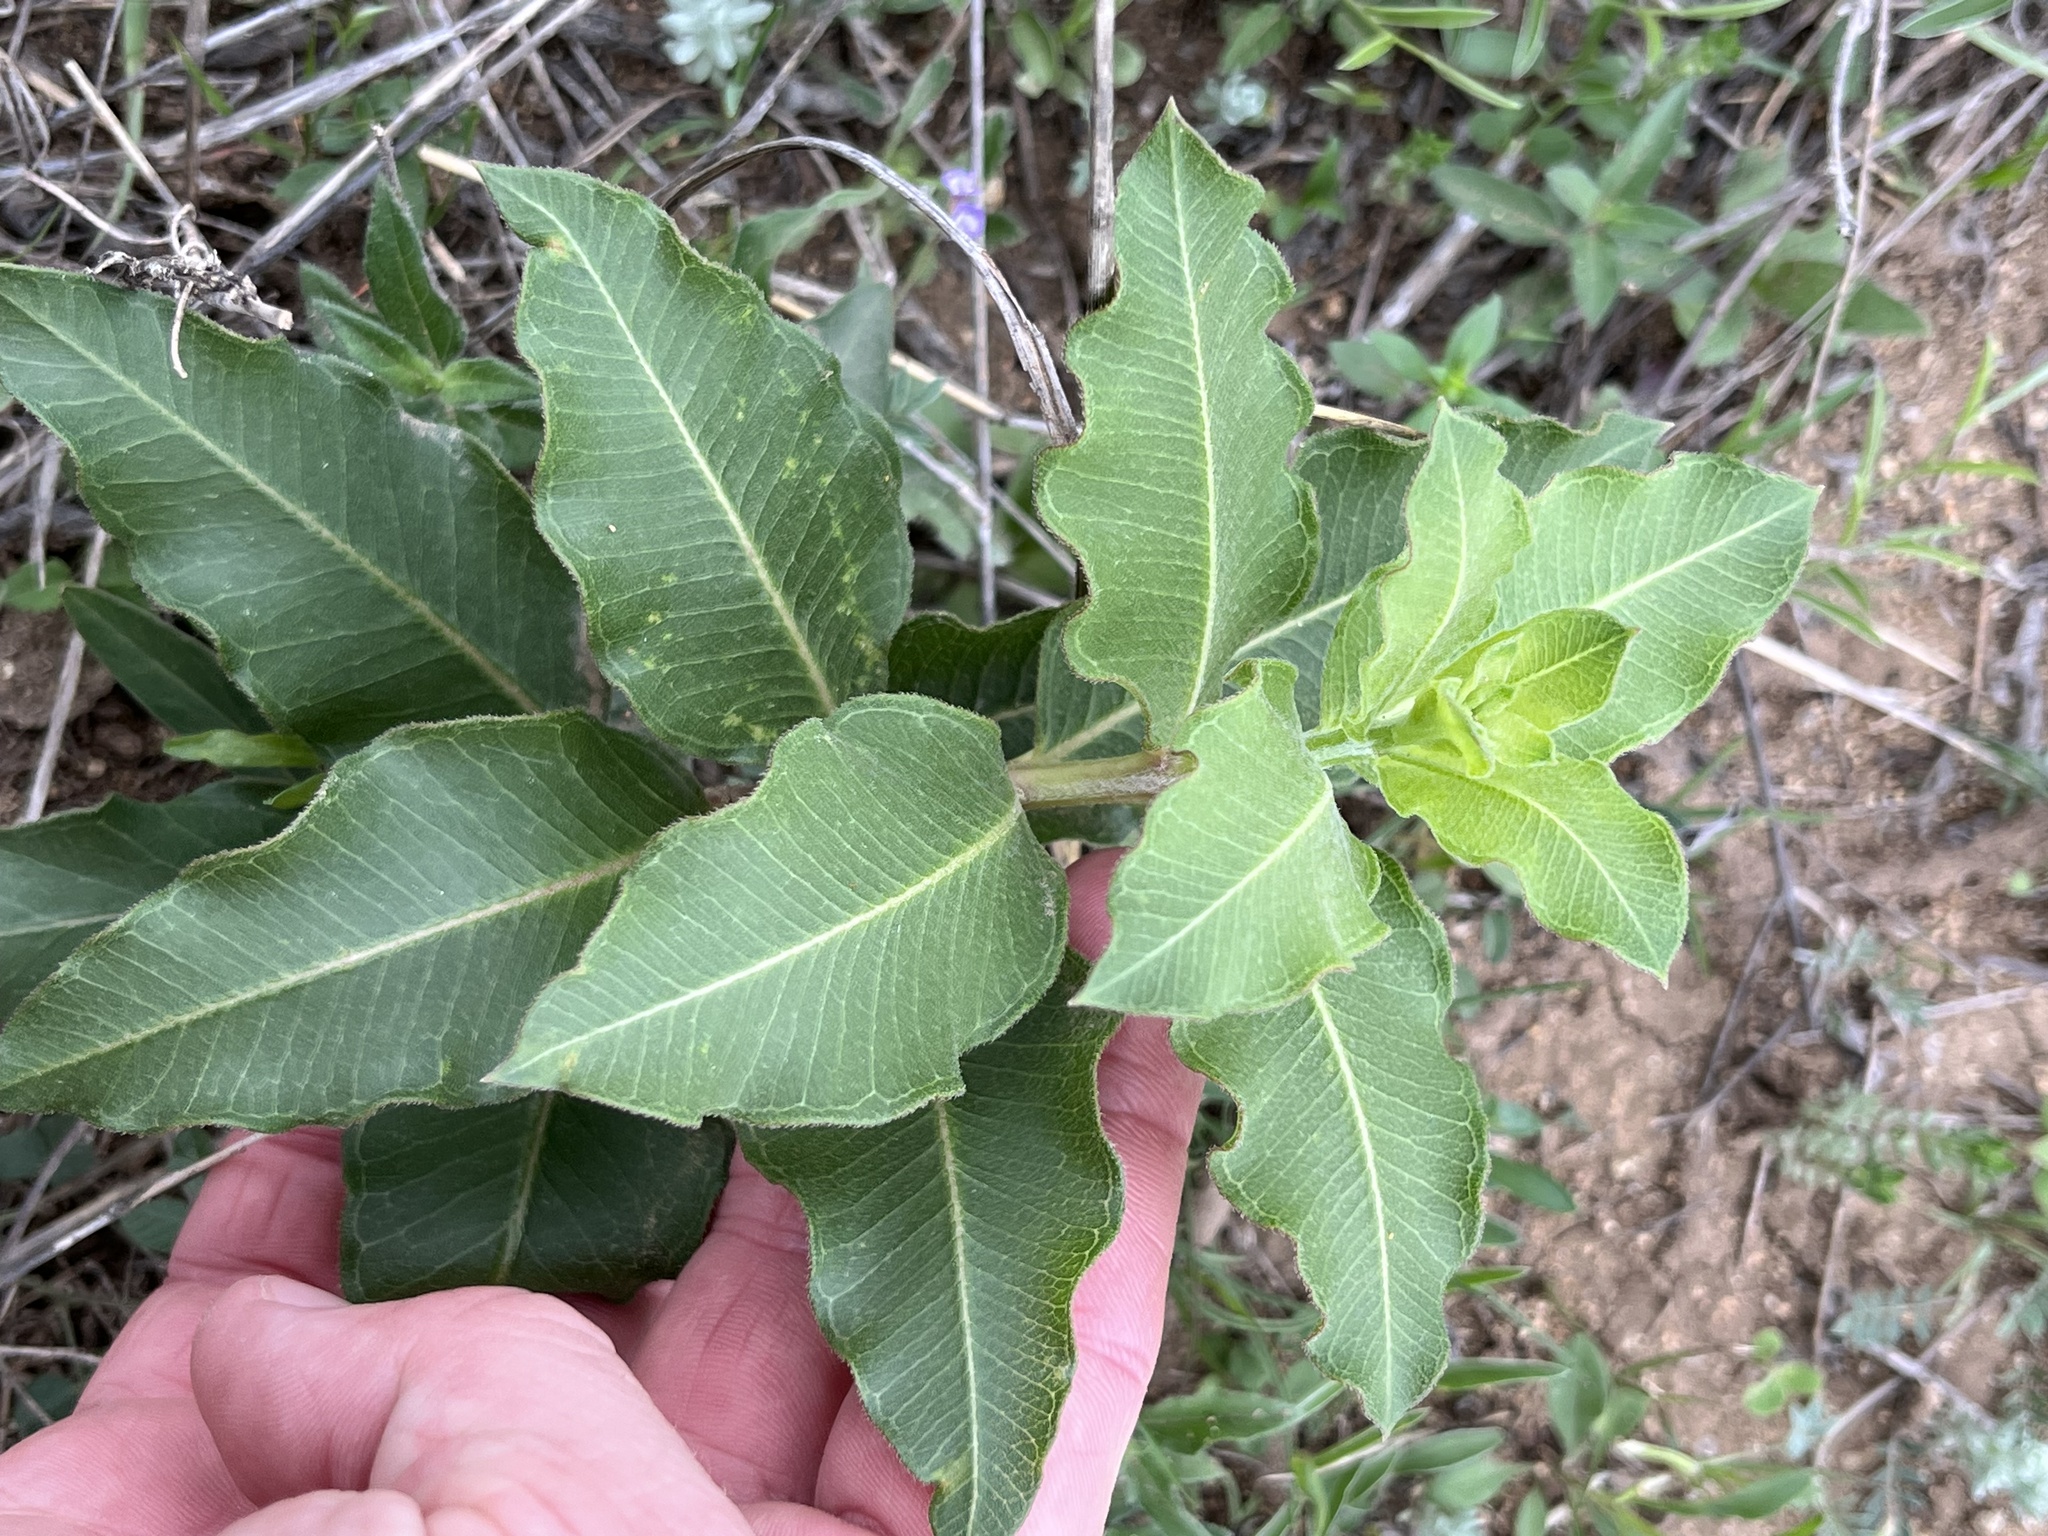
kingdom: Plantae
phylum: Tracheophyta
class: Magnoliopsida
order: Gentianales
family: Apocynaceae
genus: Asclepias
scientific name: Asclepias viridiflora
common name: Green comet milkweed
